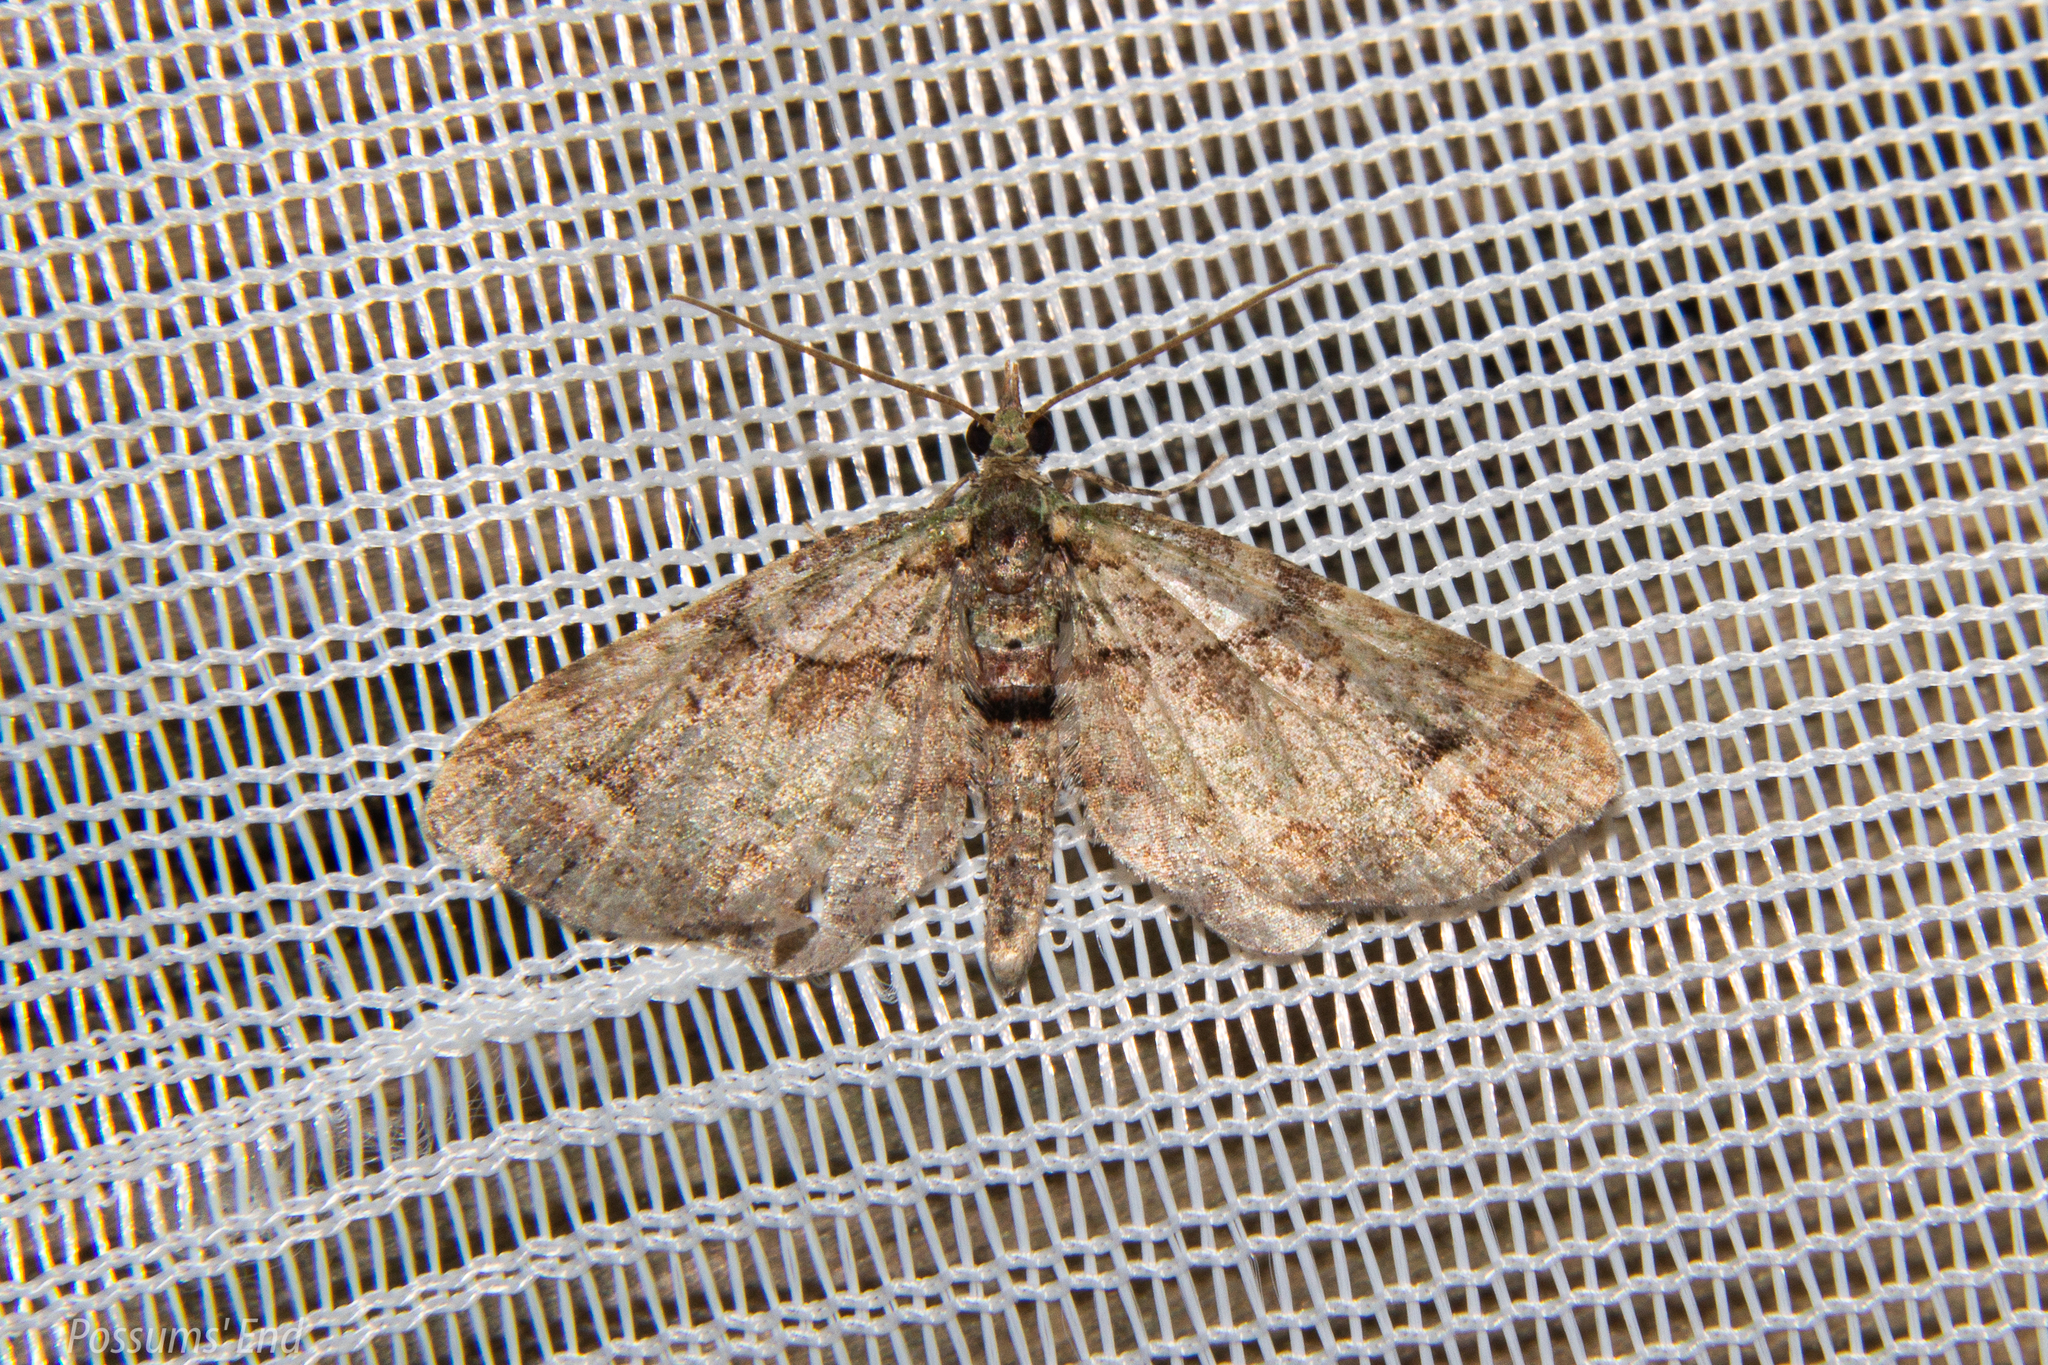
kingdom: Animalia
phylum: Arthropoda
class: Insecta
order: Lepidoptera
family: Geometridae
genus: Idaea
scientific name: Idaea mutanda
